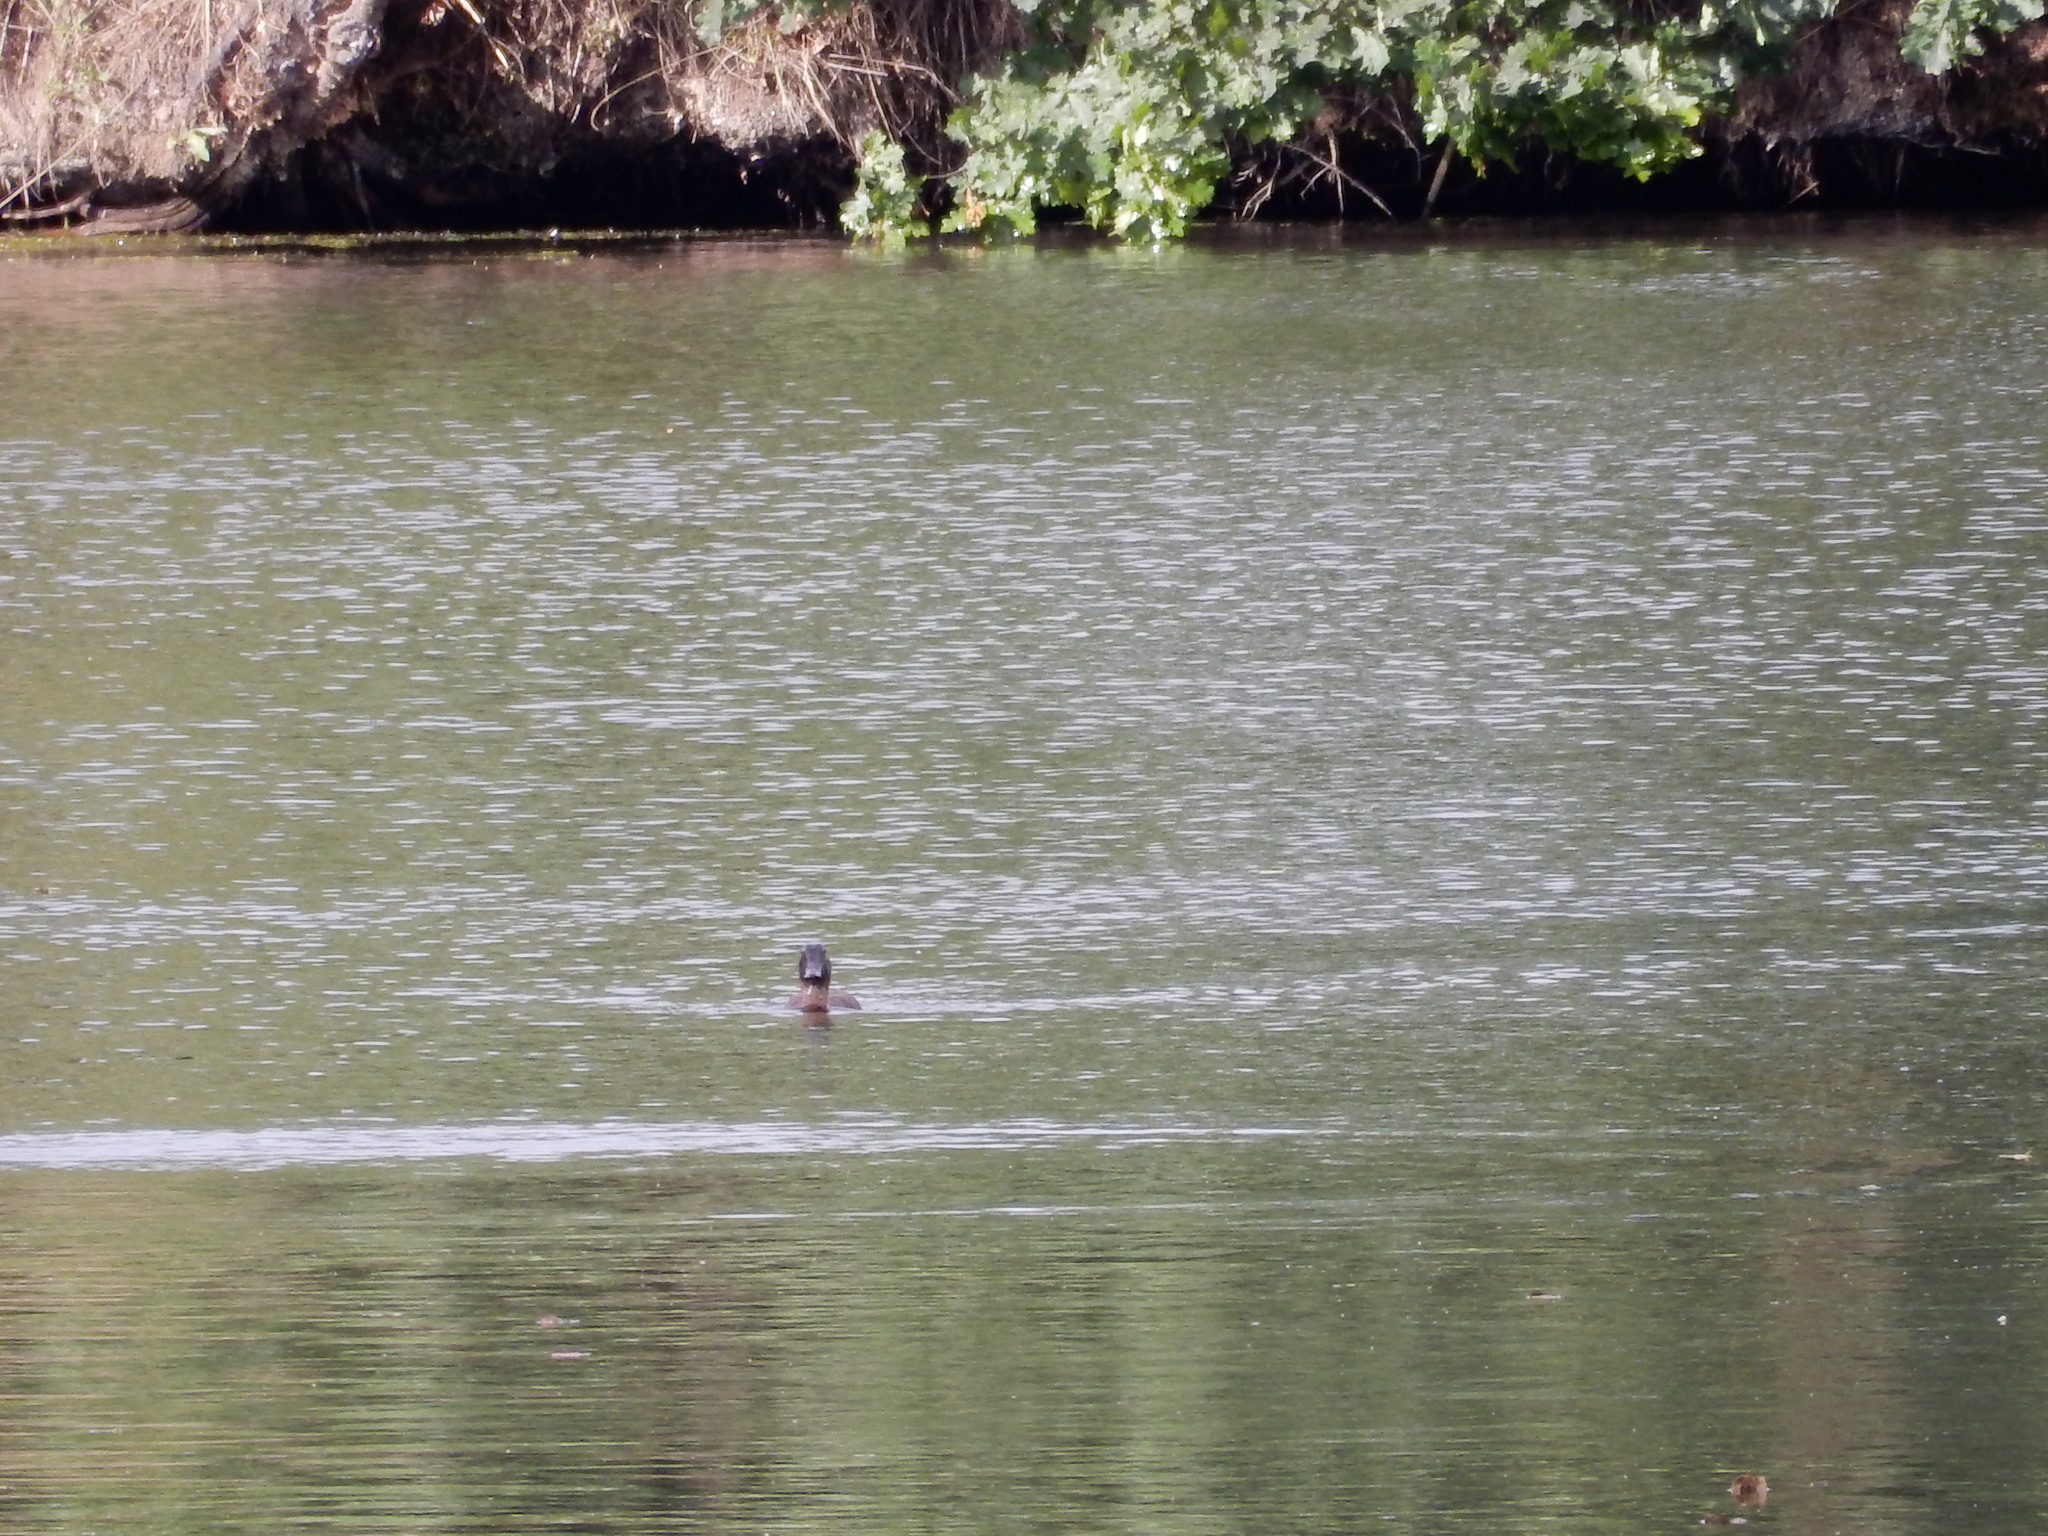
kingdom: Animalia
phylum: Chordata
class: Aves
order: Anseriformes
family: Anatidae
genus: Aythya
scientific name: Aythya ferina
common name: Common pochard
